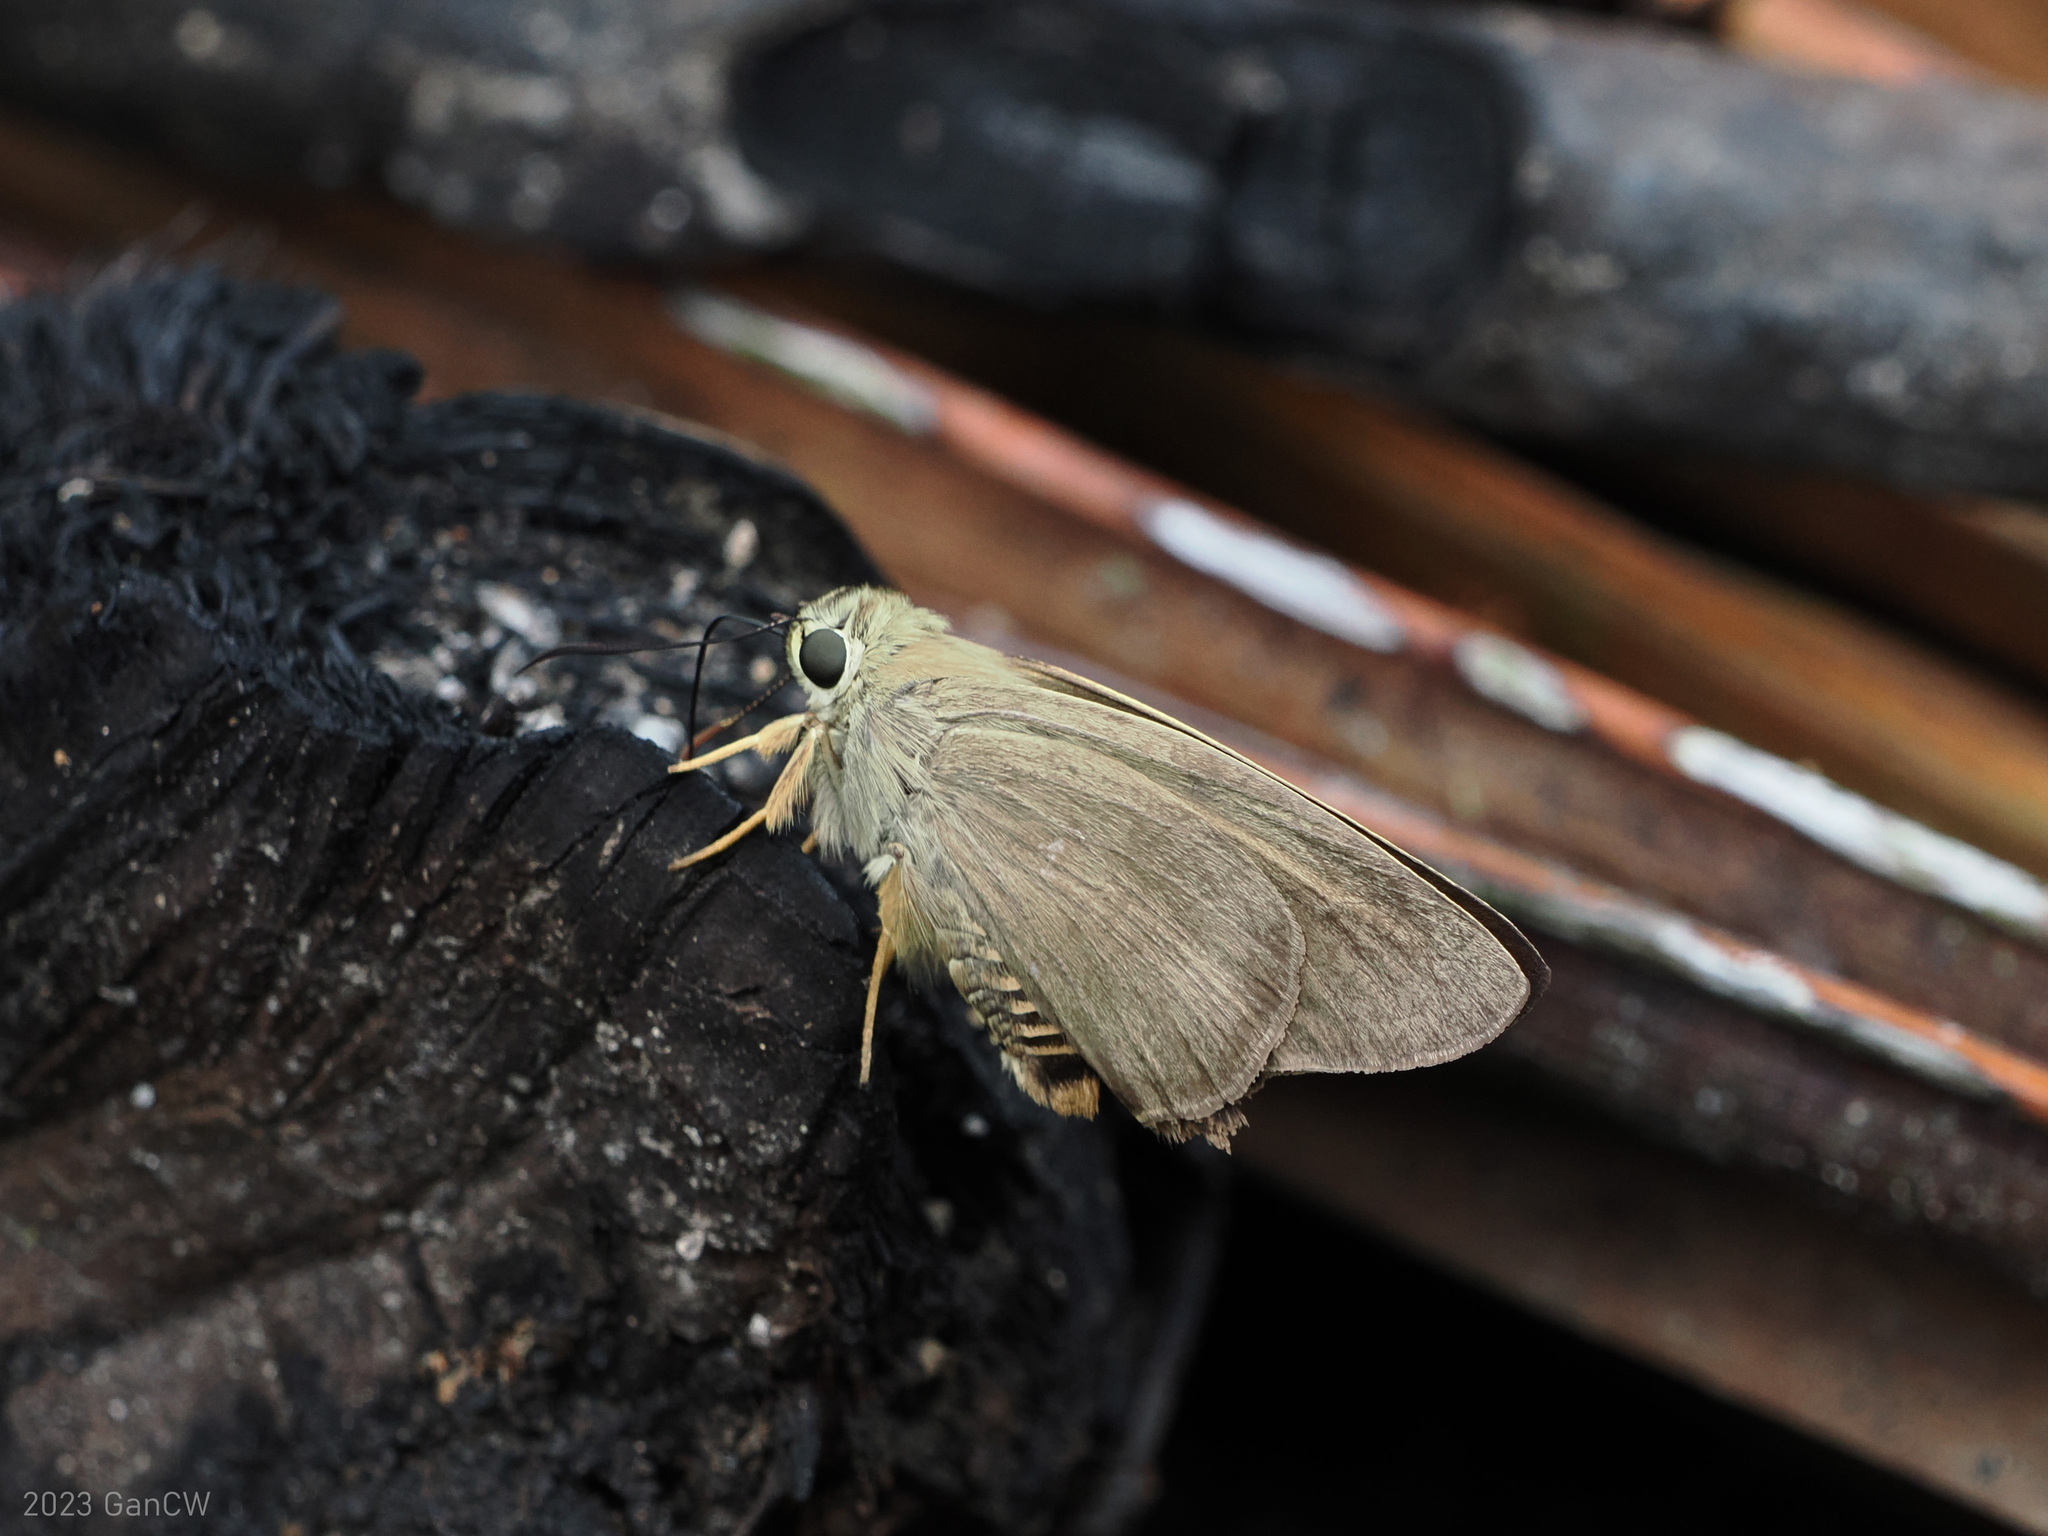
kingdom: Animalia
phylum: Arthropoda
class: Insecta
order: Lepidoptera
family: Hesperiidae
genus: Badamia
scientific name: Badamia exclamationis
